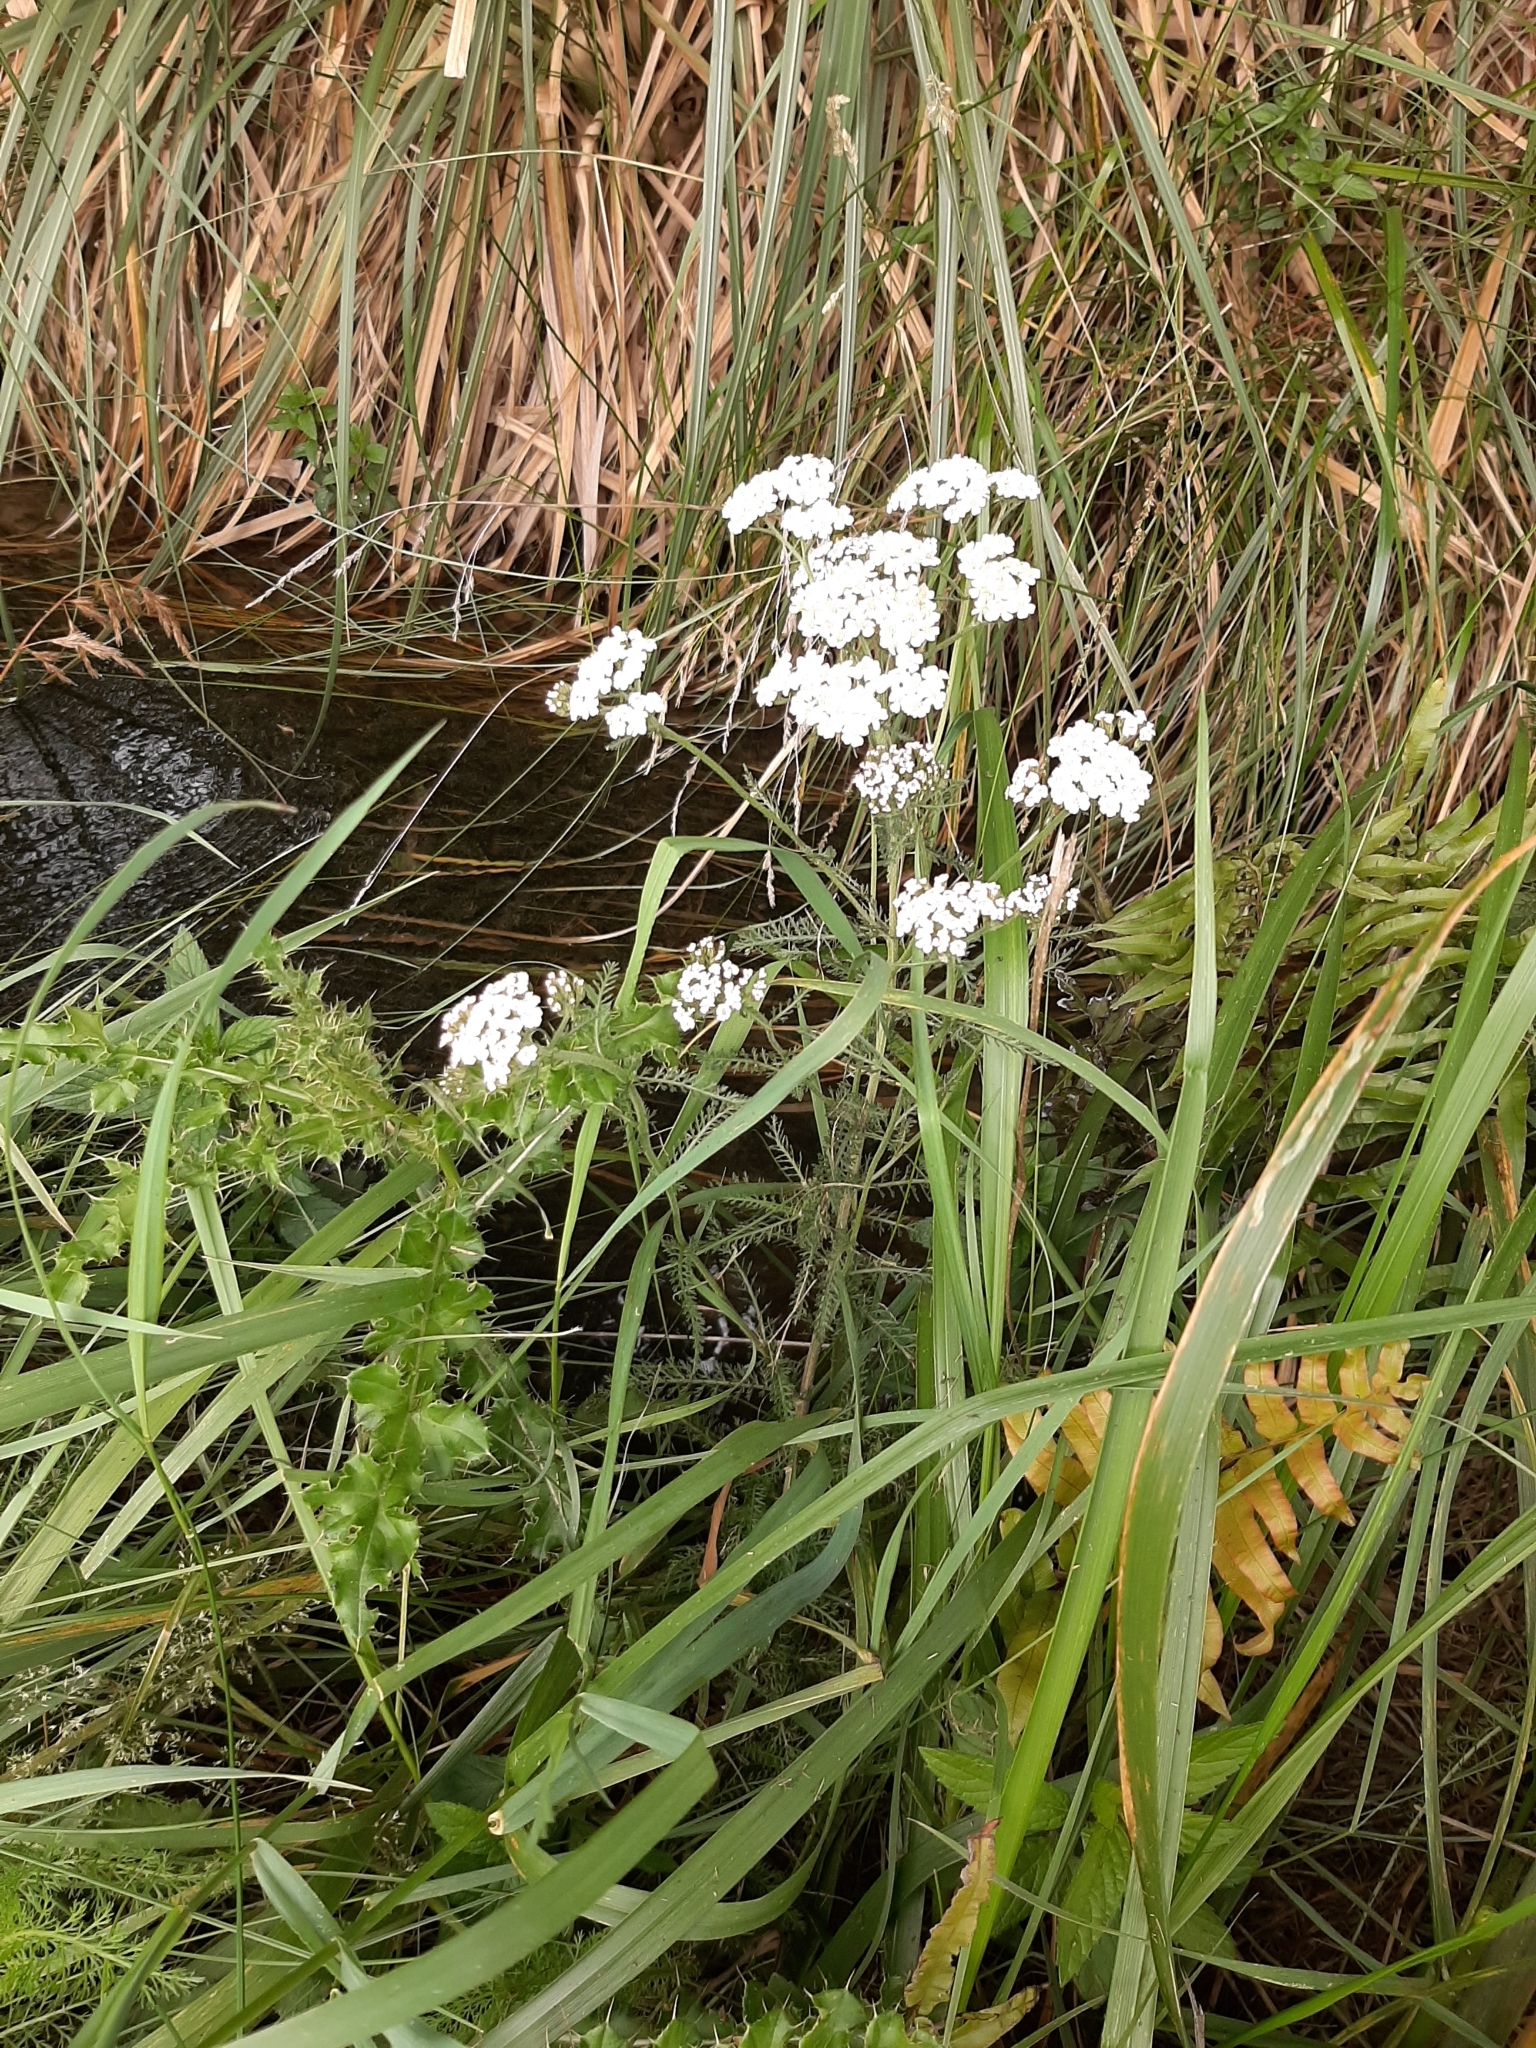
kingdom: Plantae
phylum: Tracheophyta
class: Magnoliopsida
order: Asterales
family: Asteraceae
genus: Achillea
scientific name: Achillea millefolium
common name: Yarrow
